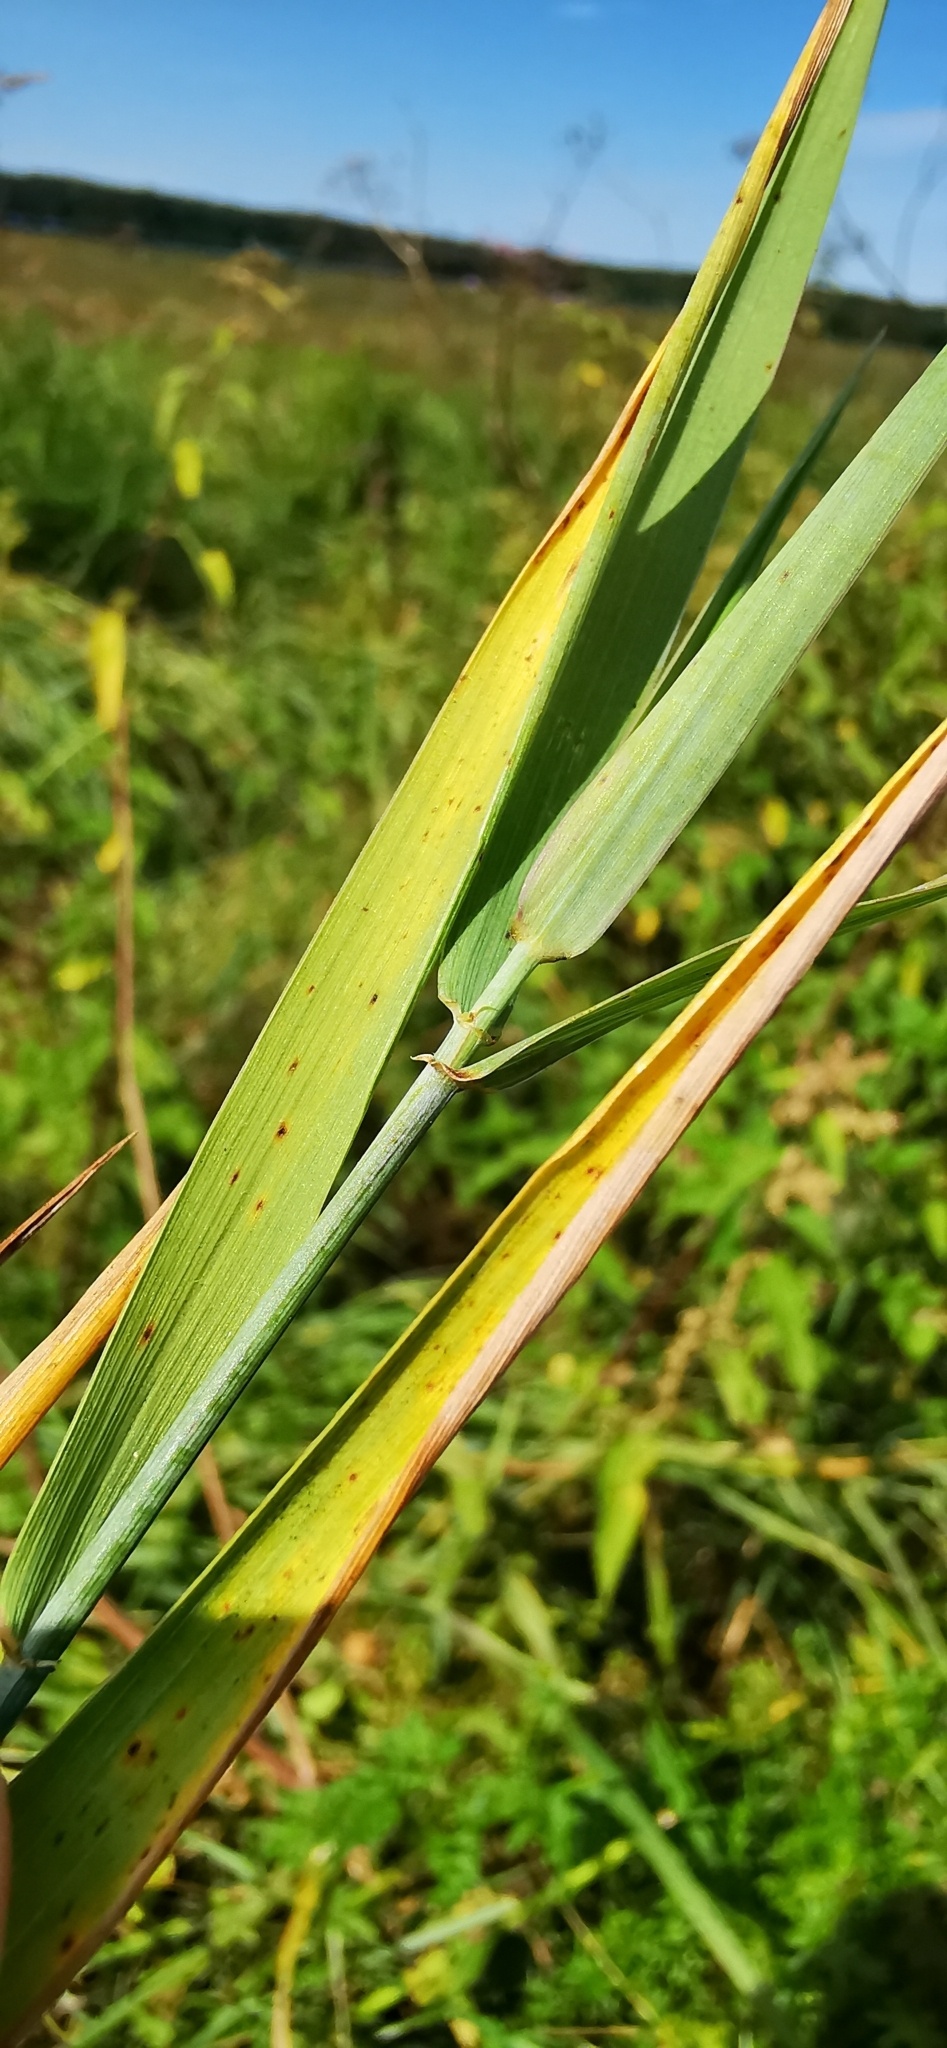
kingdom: Plantae
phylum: Tracheophyta
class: Liliopsida
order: Poales
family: Poaceae
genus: Elymus
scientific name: Elymus repens
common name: Quackgrass
